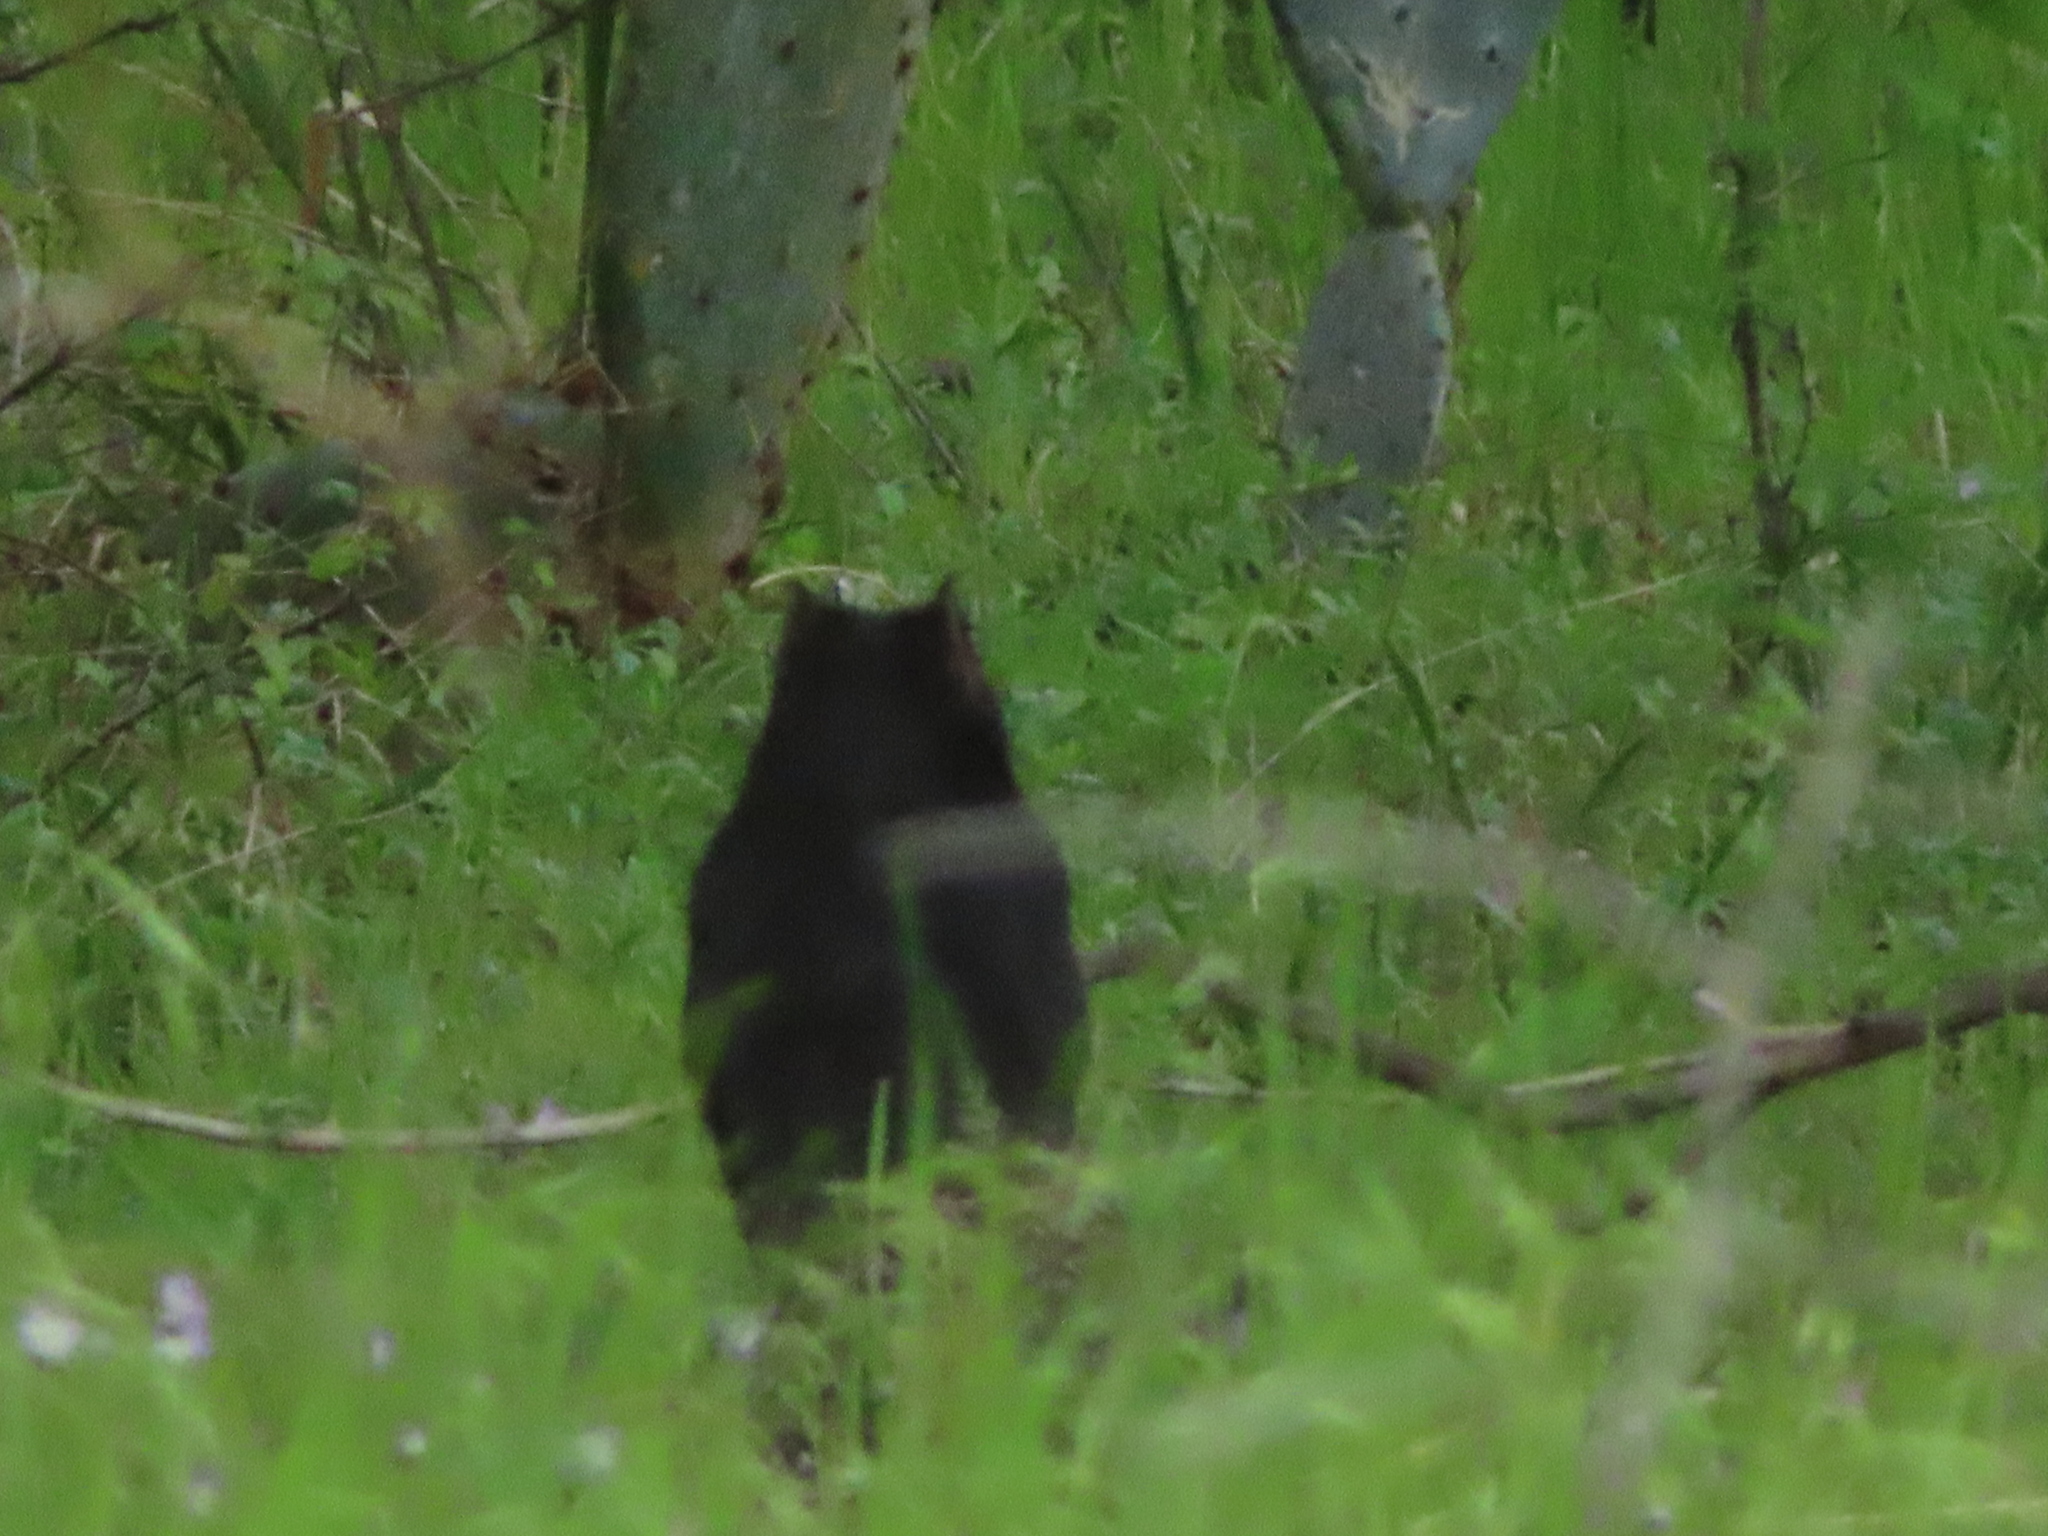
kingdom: Animalia
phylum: Chordata
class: Mammalia
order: Rodentia
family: Sciuridae
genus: Otospermophilus
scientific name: Otospermophilus variegatus
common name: Rock squirrel
